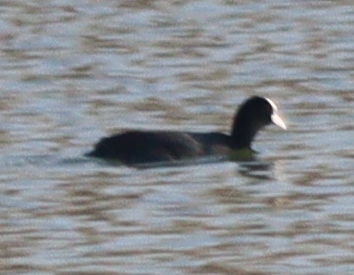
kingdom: Animalia
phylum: Chordata
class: Aves
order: Gruiformes
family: Rallidae
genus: Fulica
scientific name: Fulica atra
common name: Eurasian coot
